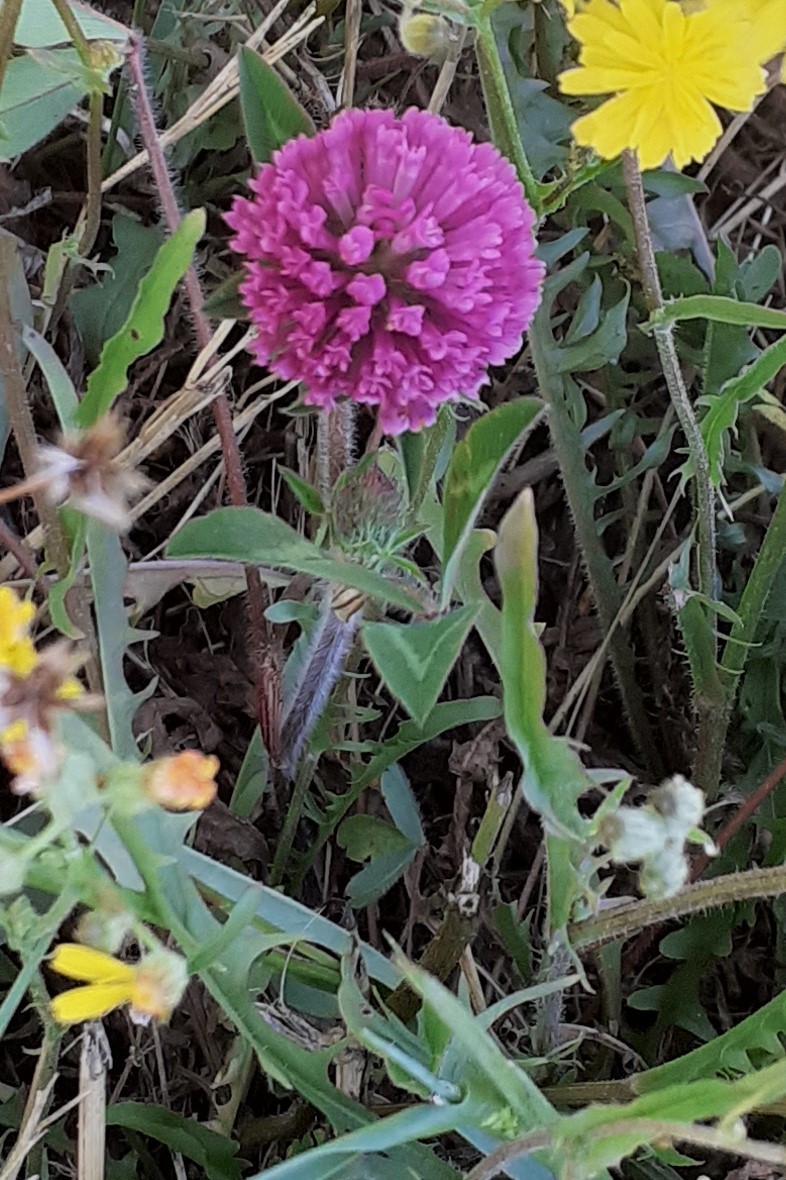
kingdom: Plantae
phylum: Tracheophyta
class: Magnoliopsida
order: Fabales
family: Fabaceae
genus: Trifolium
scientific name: Trifolium pratense
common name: Red clover
